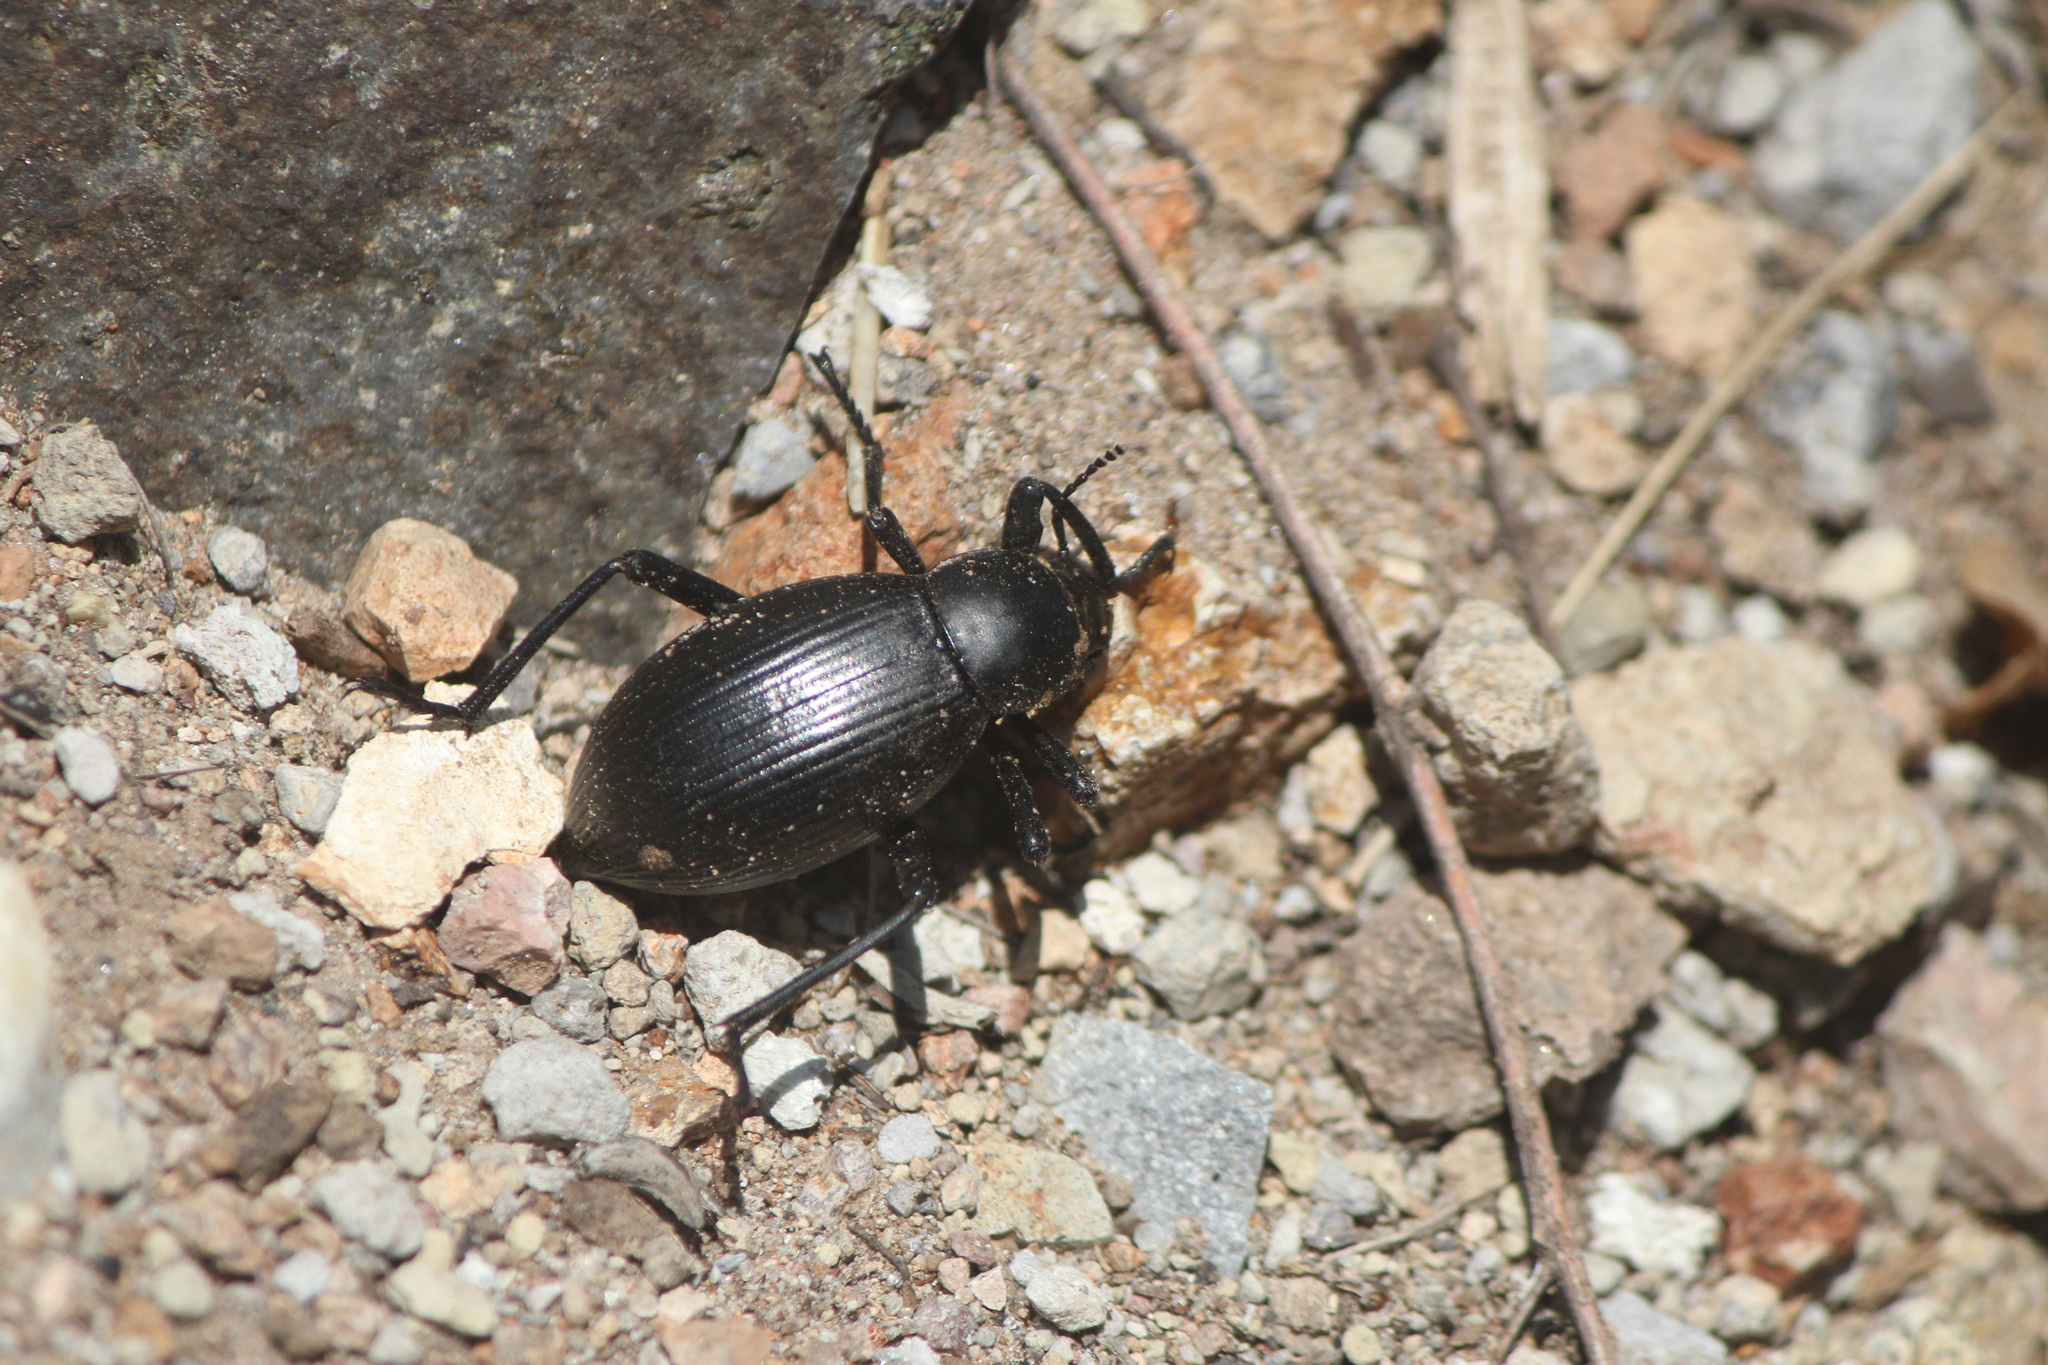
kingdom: Animalia
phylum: Arthropoda
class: Insecta
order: Coleoptera
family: Tenebrionidae
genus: Eleodes
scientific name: Eleodes spinipes
